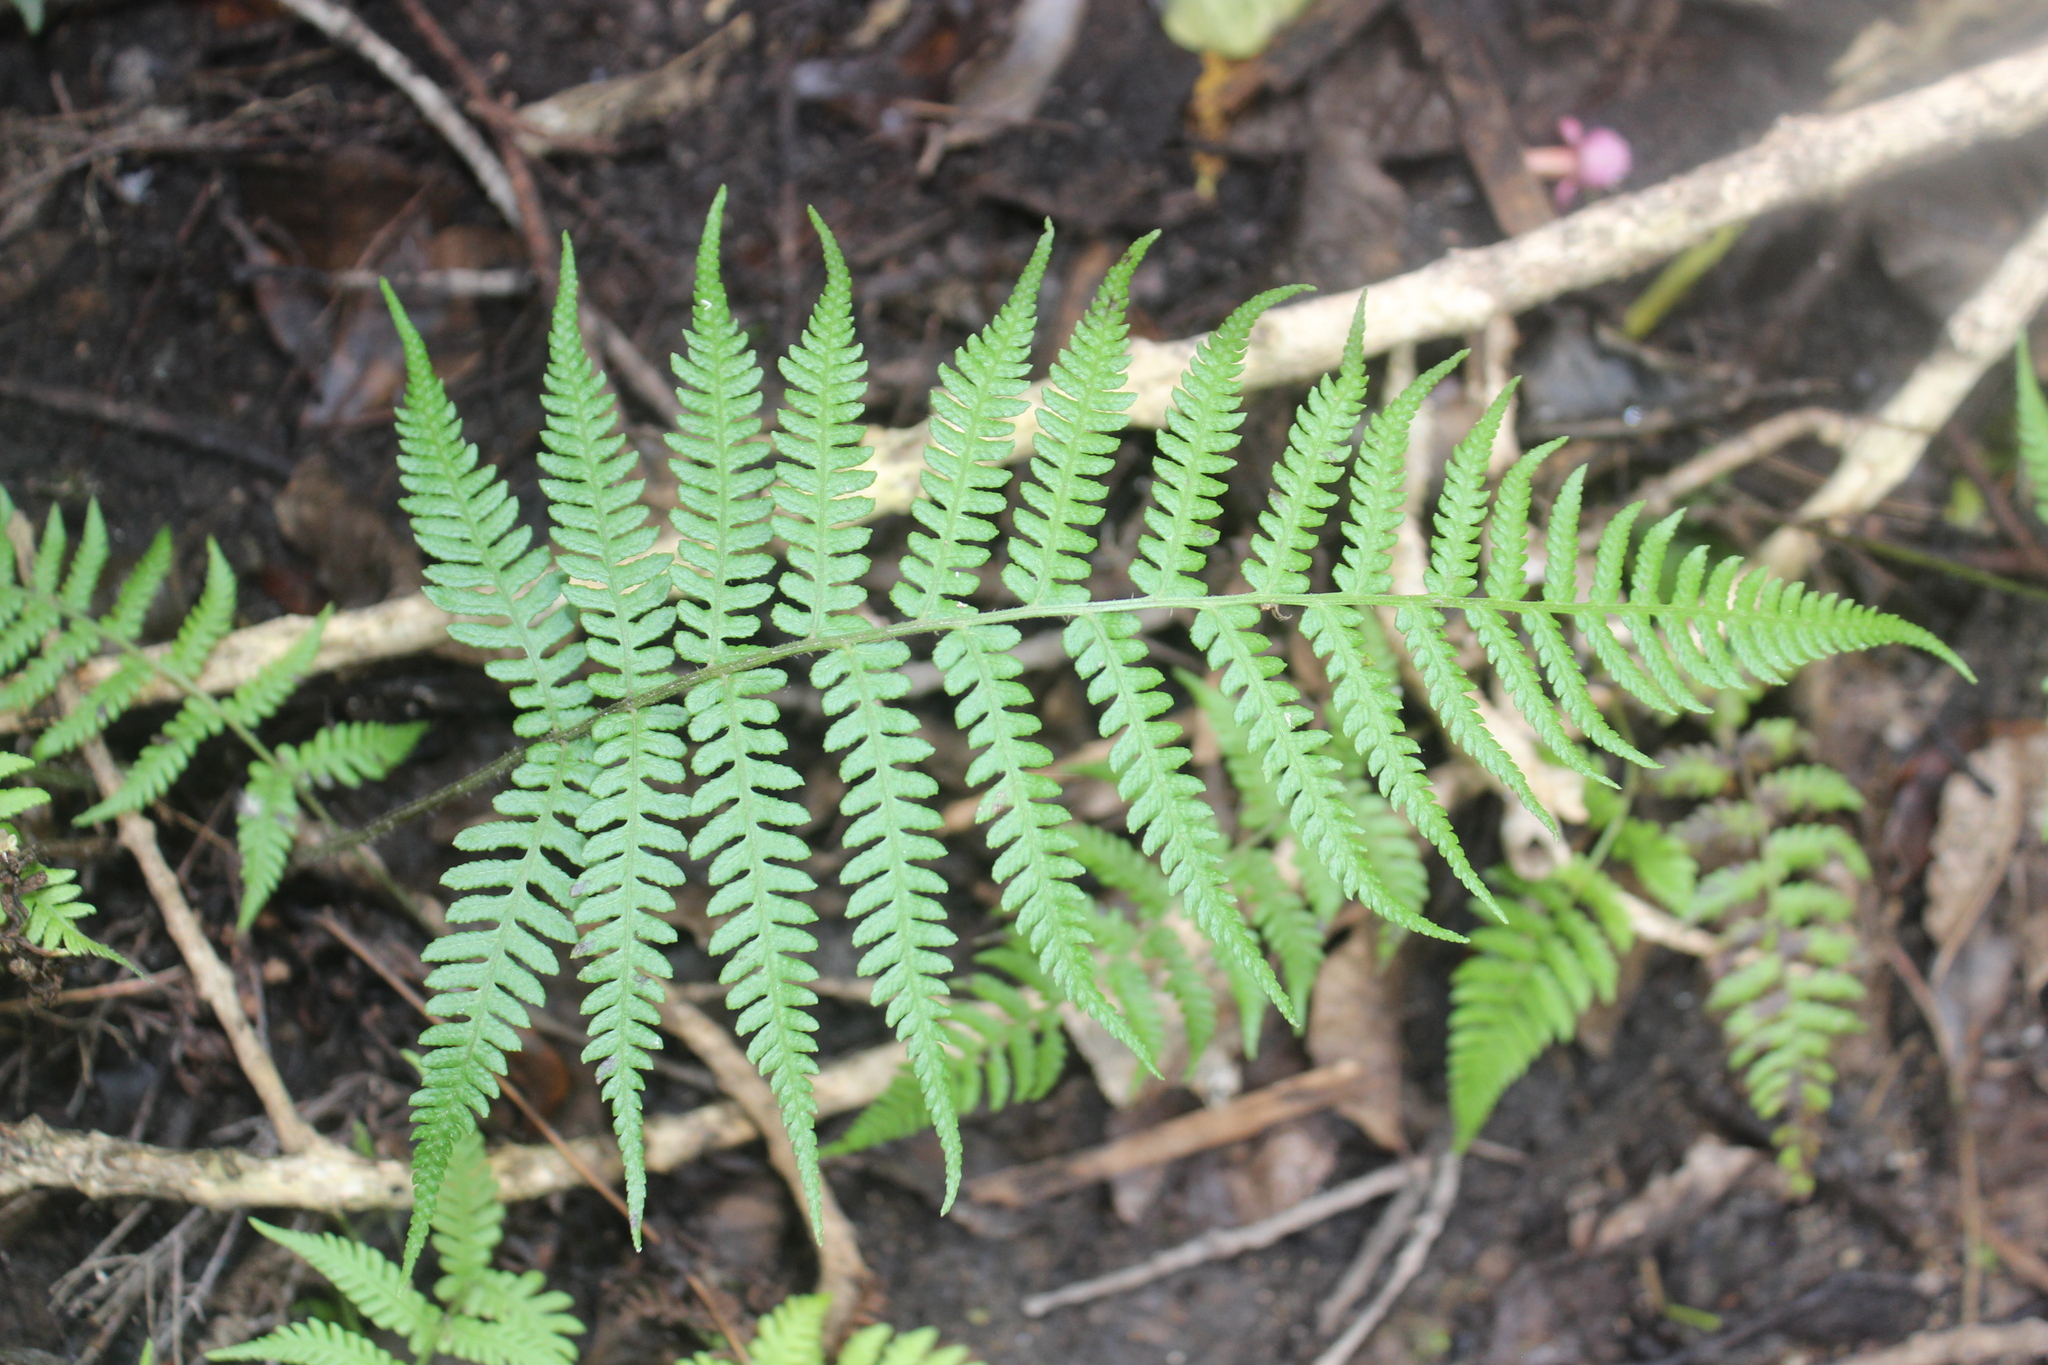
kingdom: Plantae
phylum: Tracheophyta
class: Polypodiopsida
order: Polypodiales
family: Athyriaceae
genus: Diplazium
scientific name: Diplazium congruum
